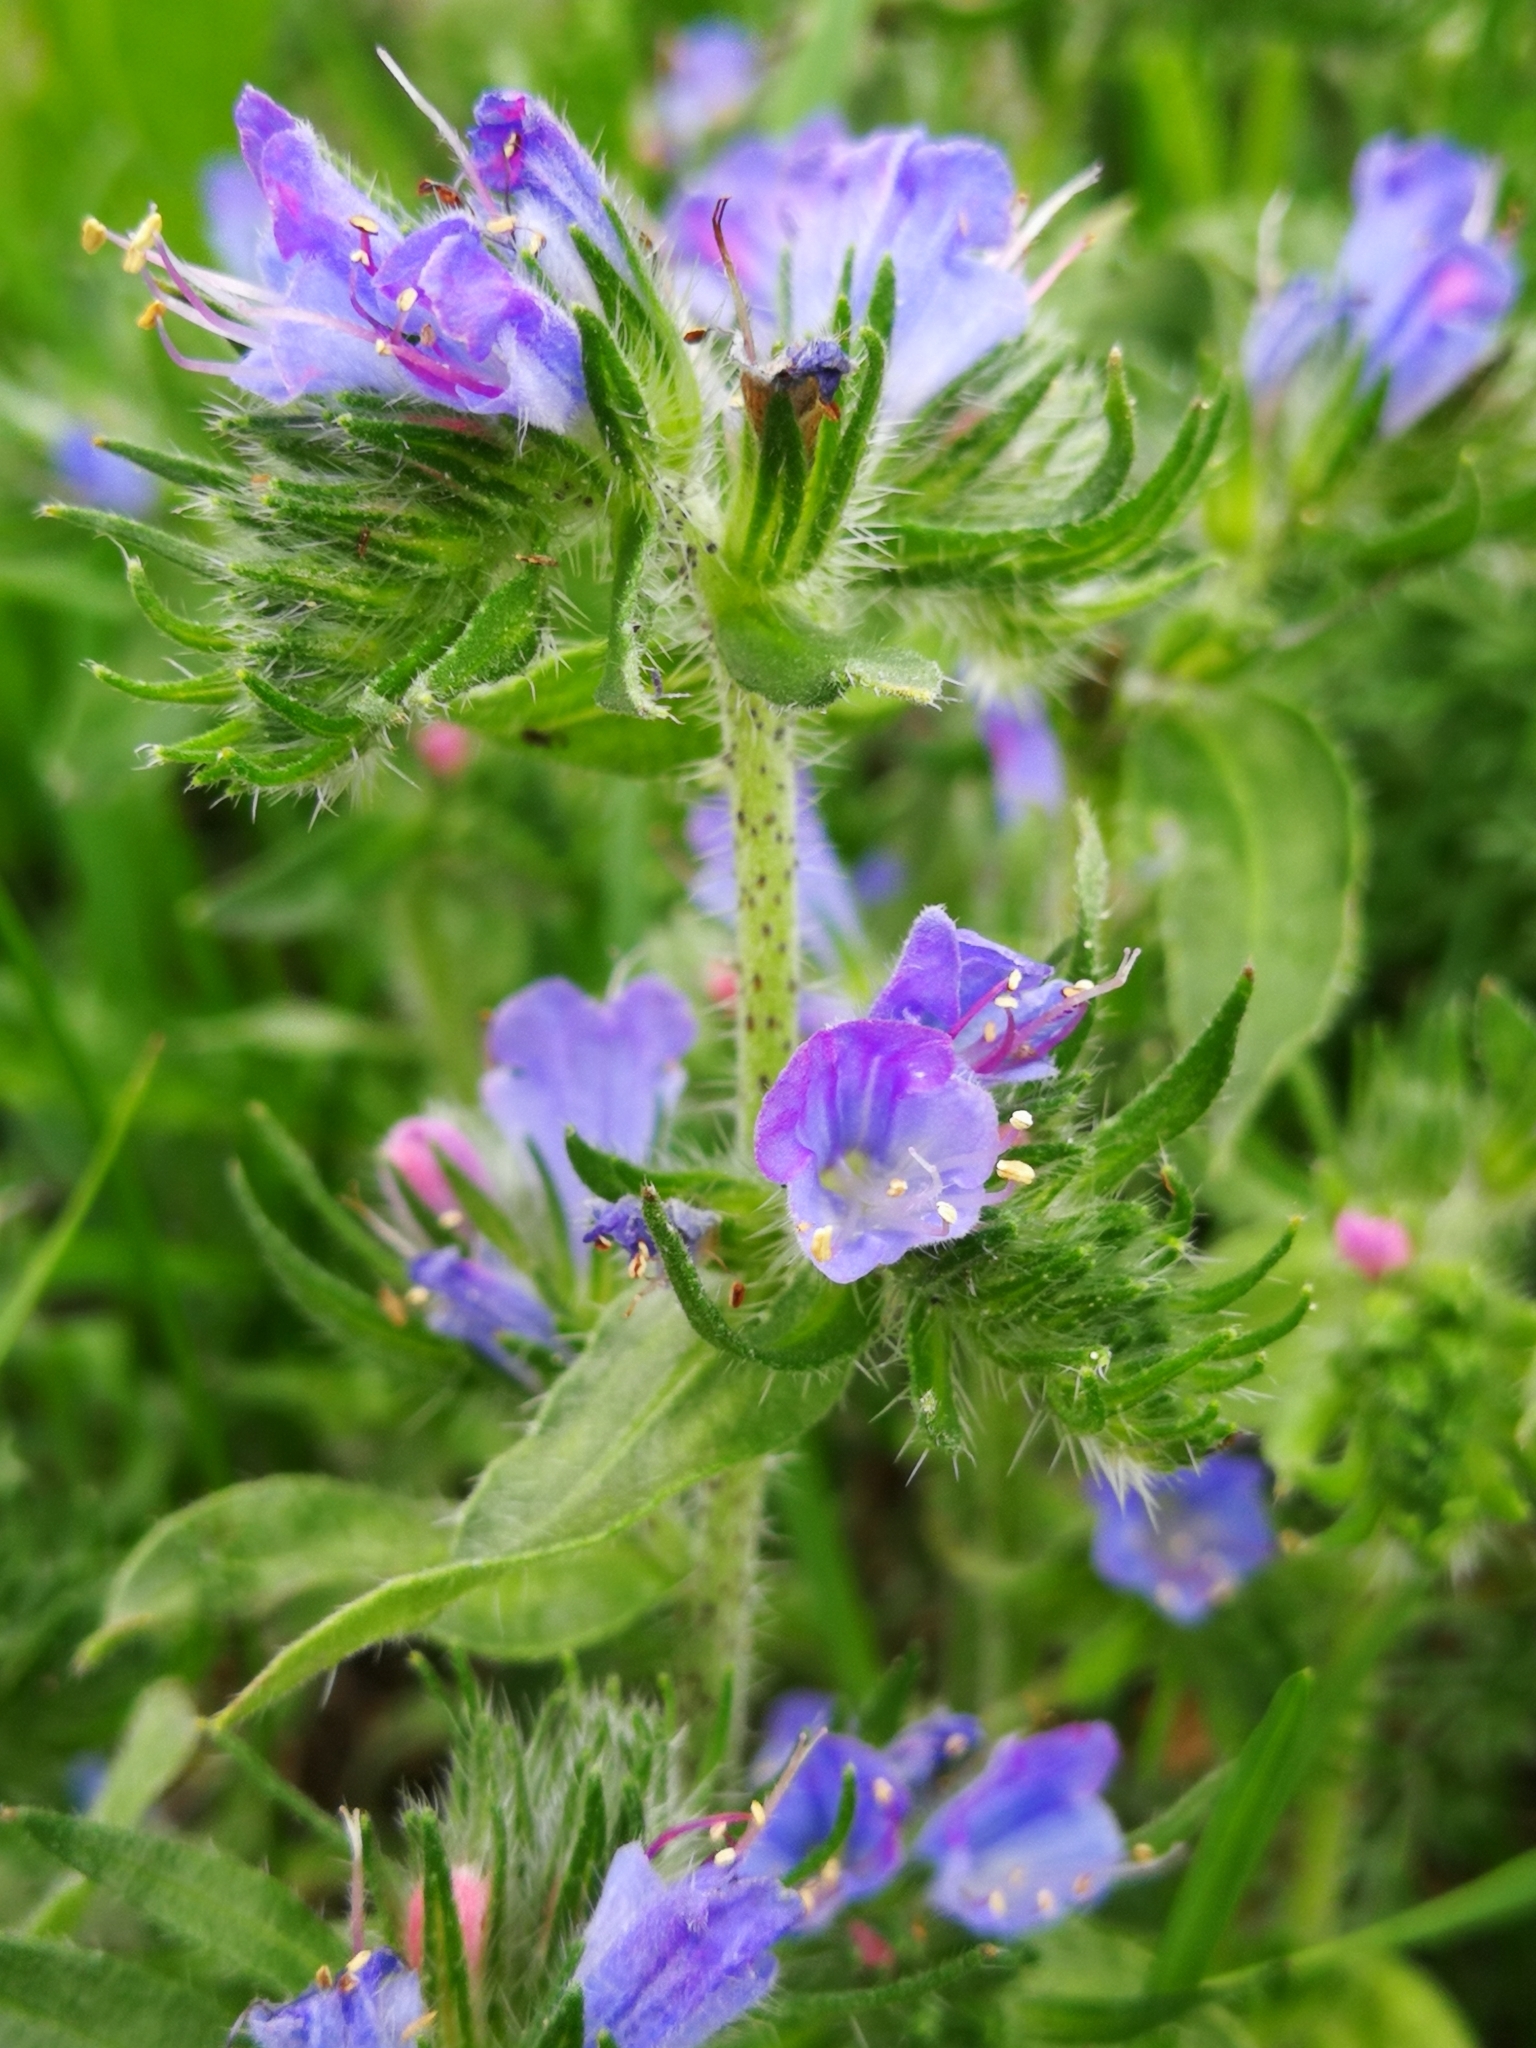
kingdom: Plantae
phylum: Tracheophyta
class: Magnoliopsida
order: Boraginales
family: Boraginaceae
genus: Echium
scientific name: Echium vulgare
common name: Common viper's bugloss
